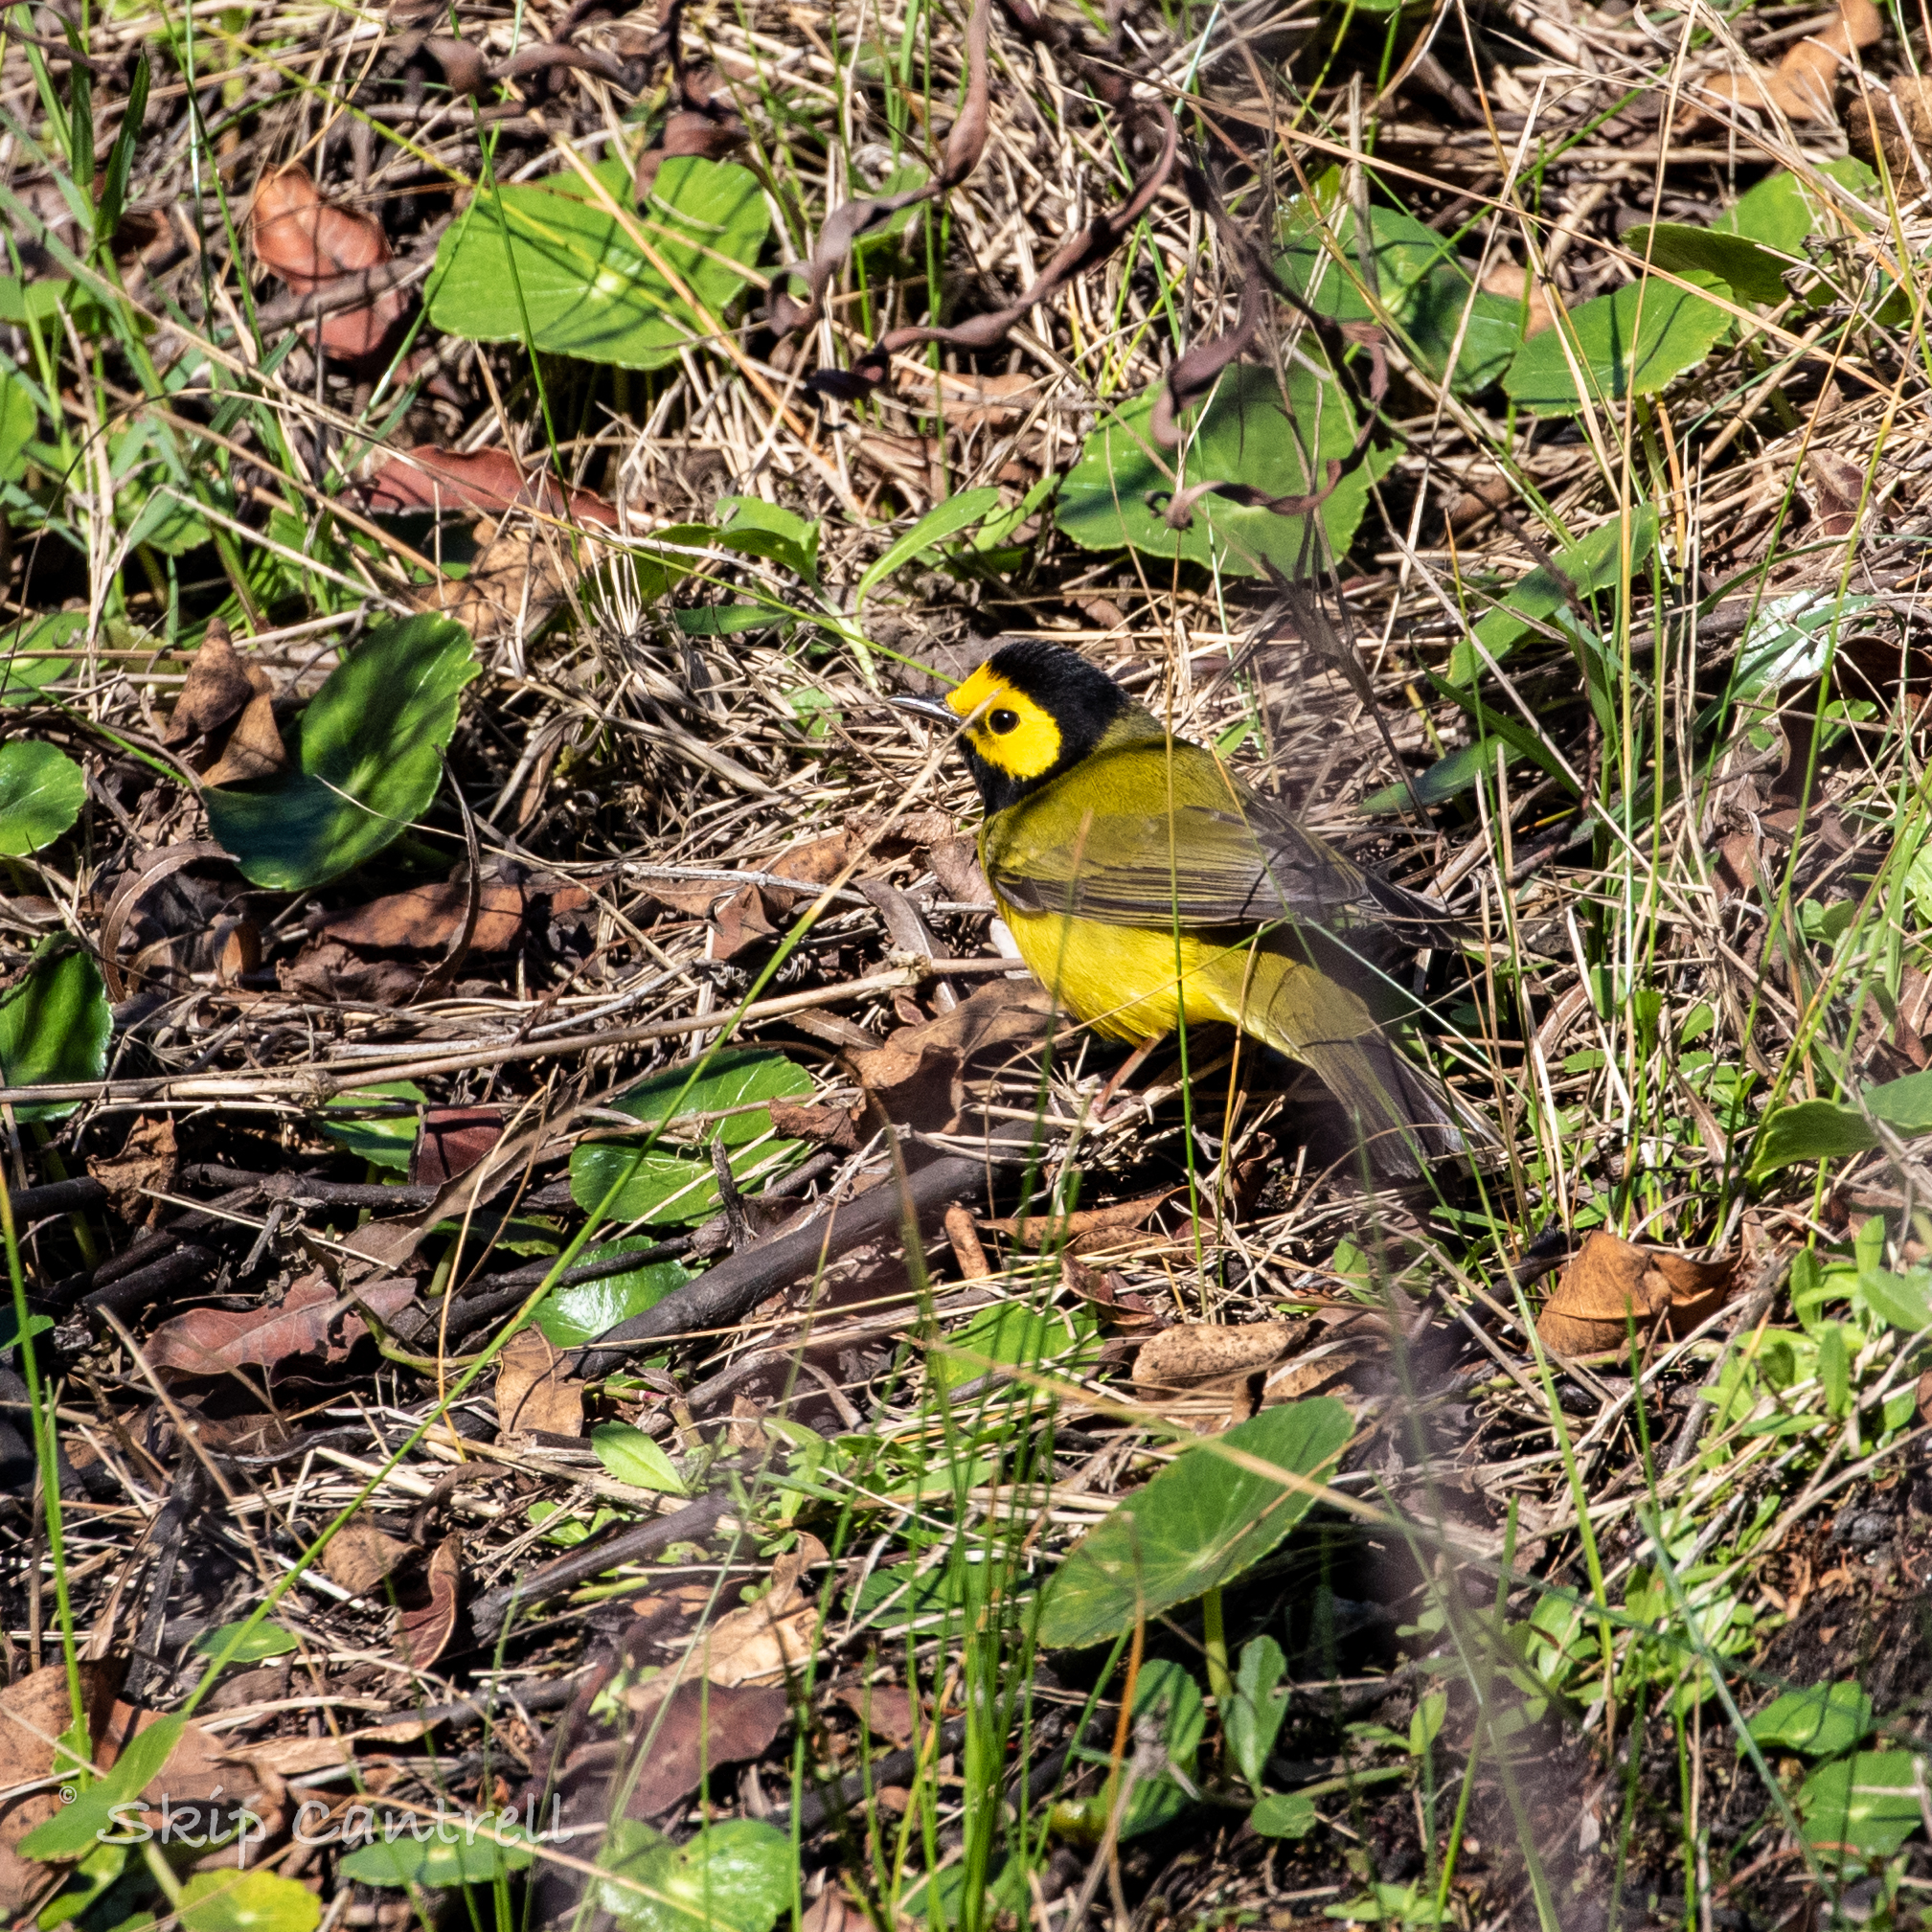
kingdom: Animalia
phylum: Chordata
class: Aves
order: Passeriformes
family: Parulidae
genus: Setophaga
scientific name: Setophaga citrina
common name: Hooded warbler
